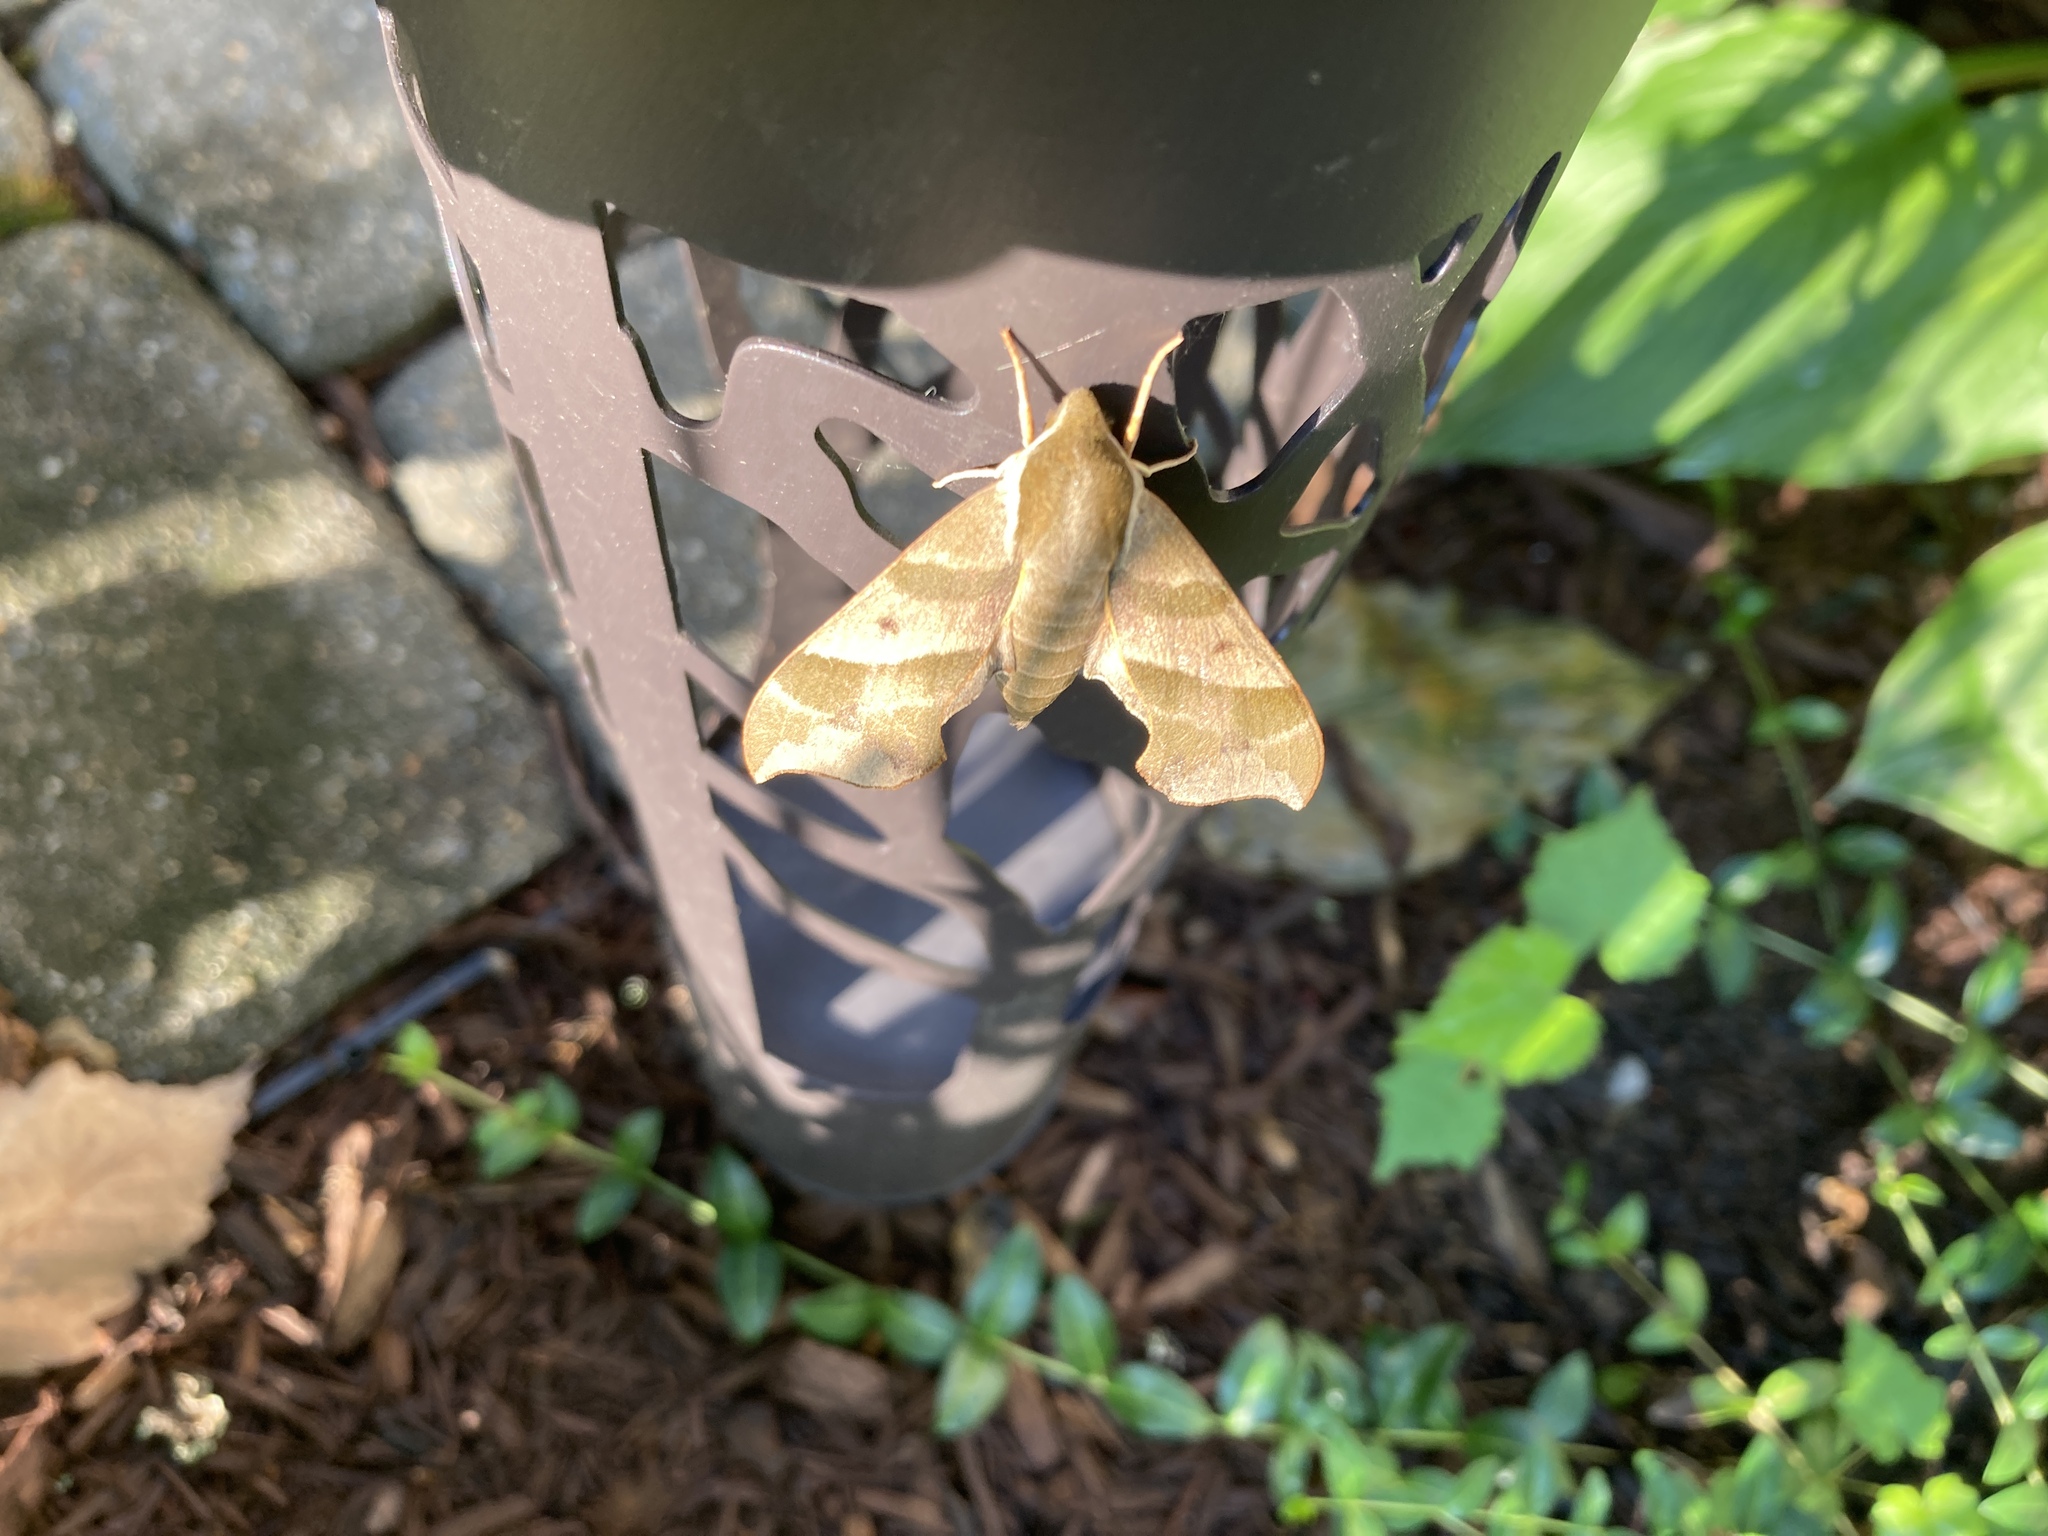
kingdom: Animalia
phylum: Arthropoda
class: Insecta
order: Lepidoptera
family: Sphingidae
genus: Darapsa
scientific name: Darapsa myron
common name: Hog sphinx
